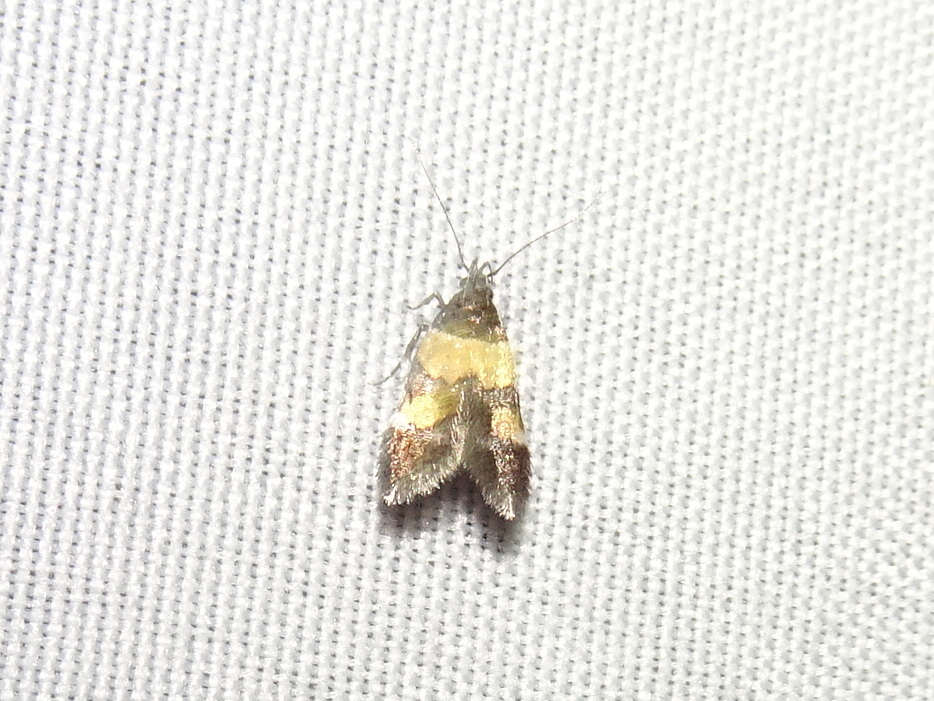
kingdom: Animalia
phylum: Arthropoda
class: Insecta
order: Lepidoptera
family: Momphidae
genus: Triclonella
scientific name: Triclonella determinatella
